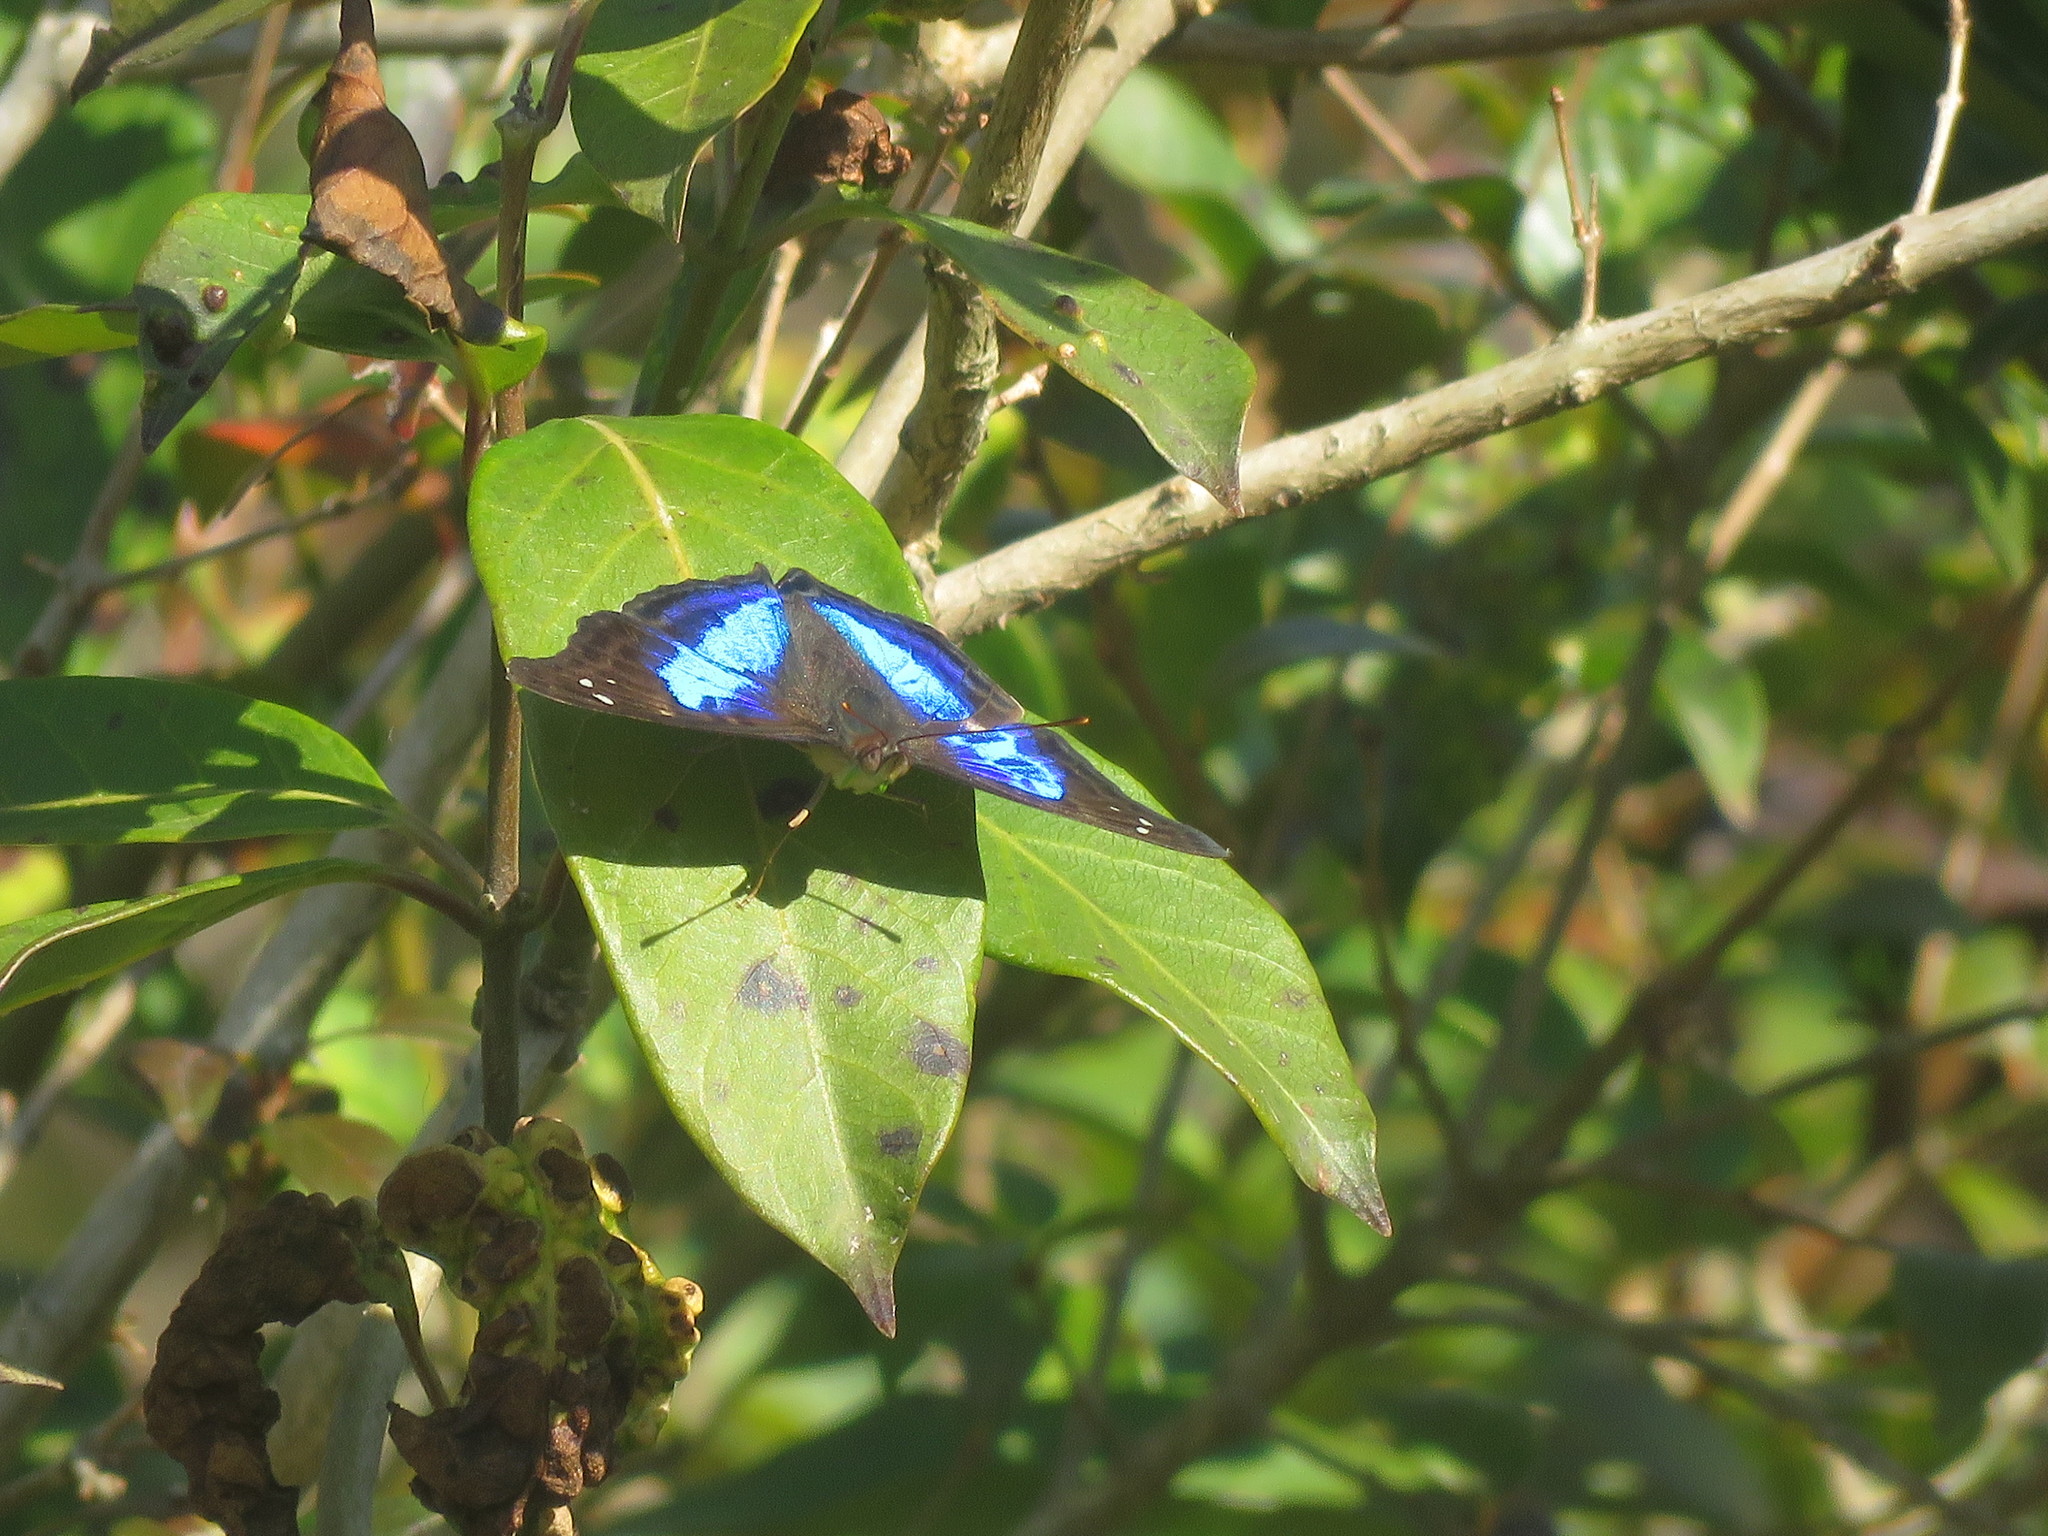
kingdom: Animalia
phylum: Arthropoda
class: Insecta
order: Lepidoptera
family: Nymphalidae
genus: Doxocopa
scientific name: Doxocopa laurentia
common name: Turquoise emperor
